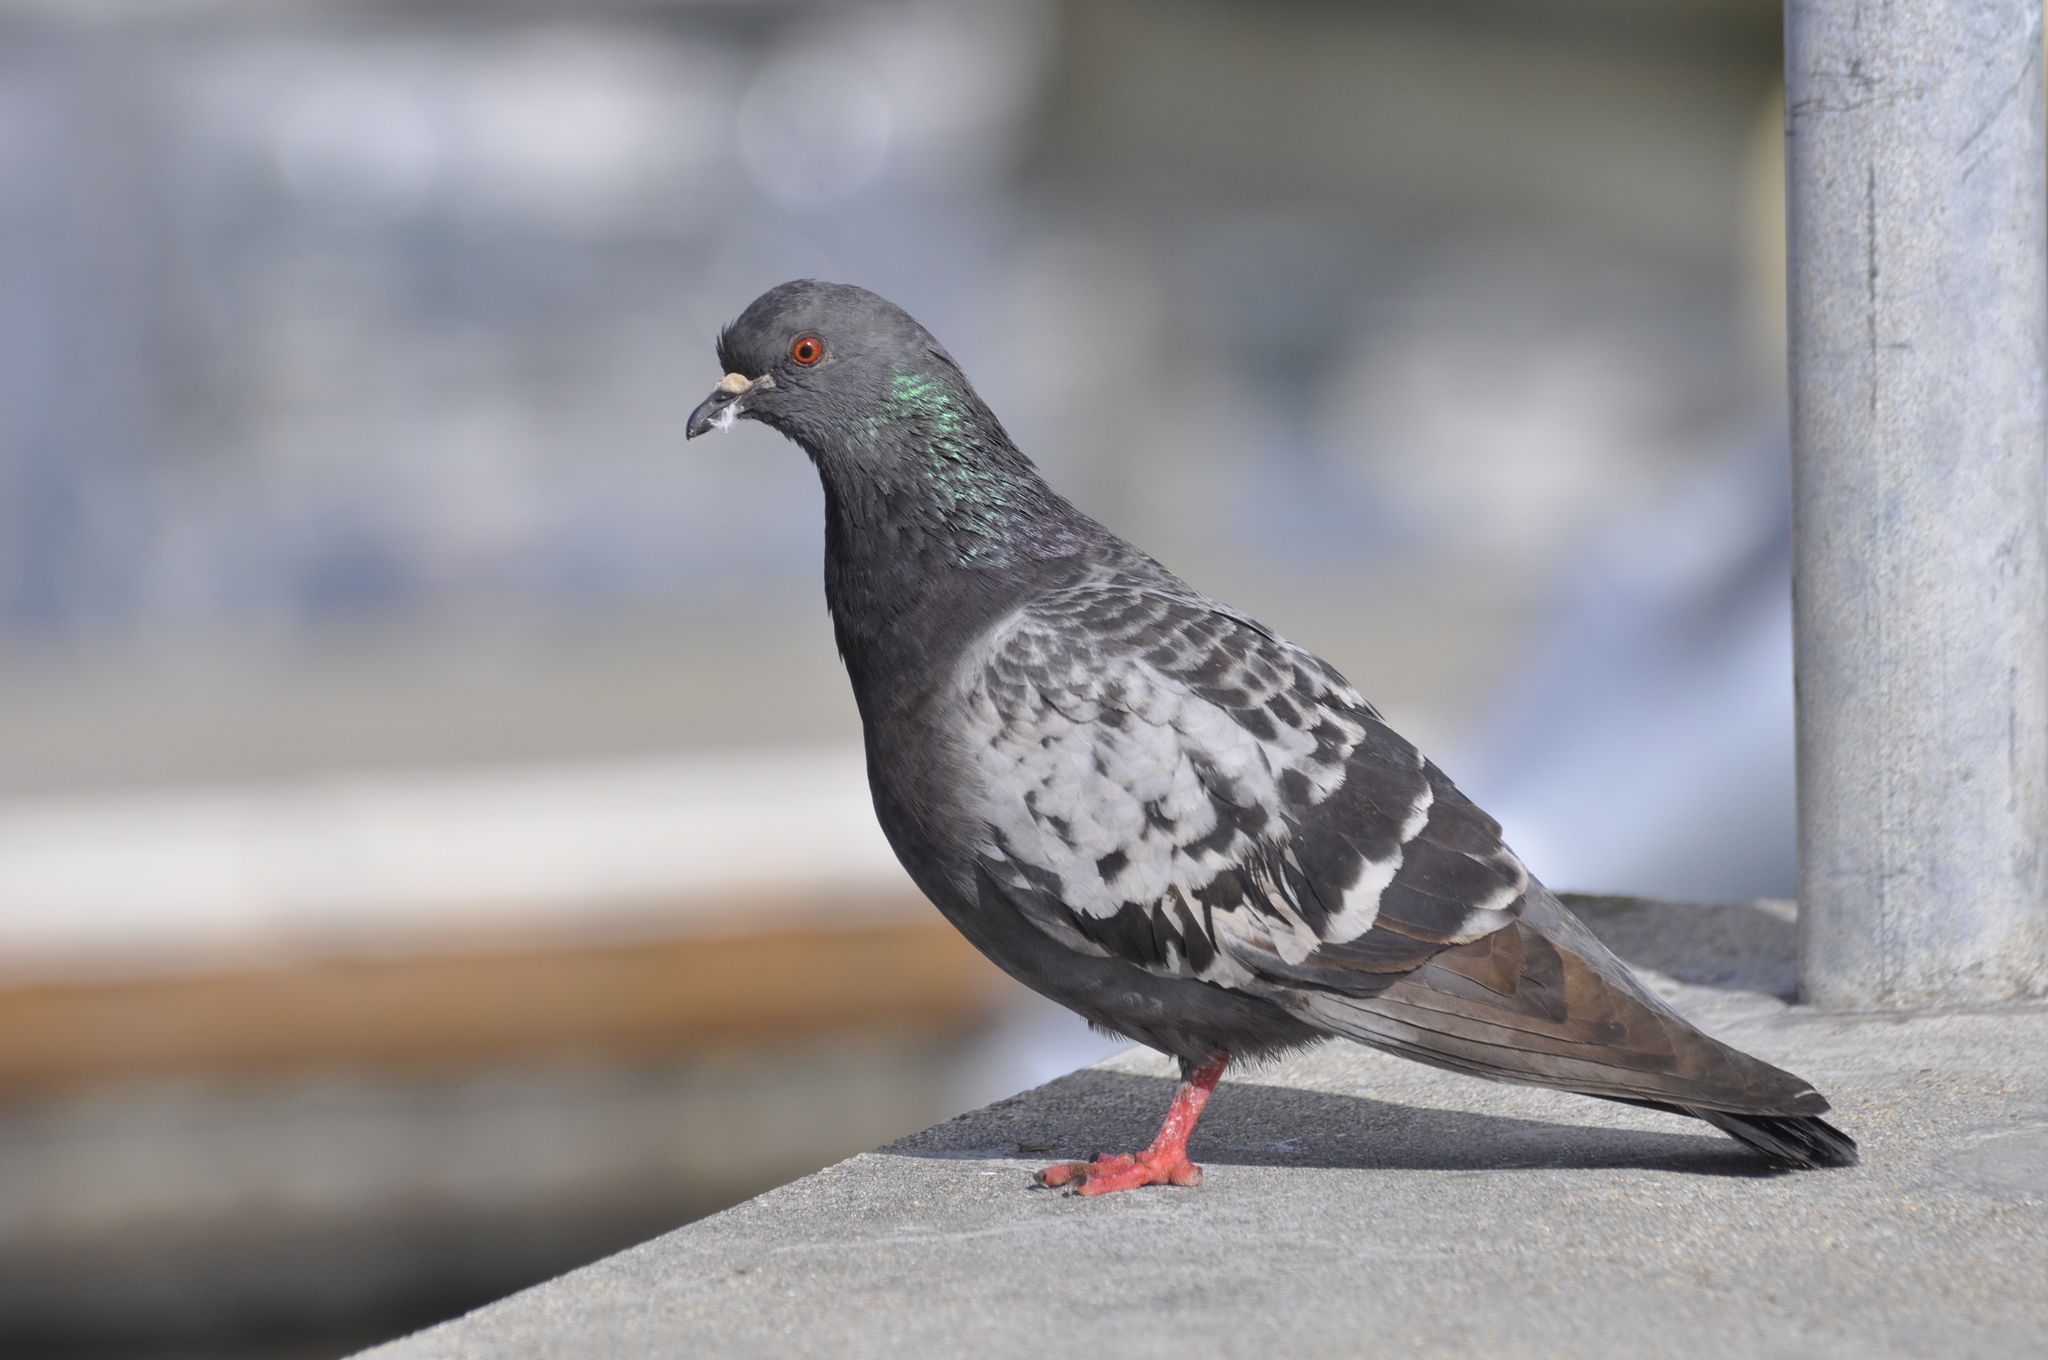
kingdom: Animalia
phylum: Chordata
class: Aves
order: Columbiformes
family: Columbidae
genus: Columba
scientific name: Columba livia
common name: Rock pigeon
